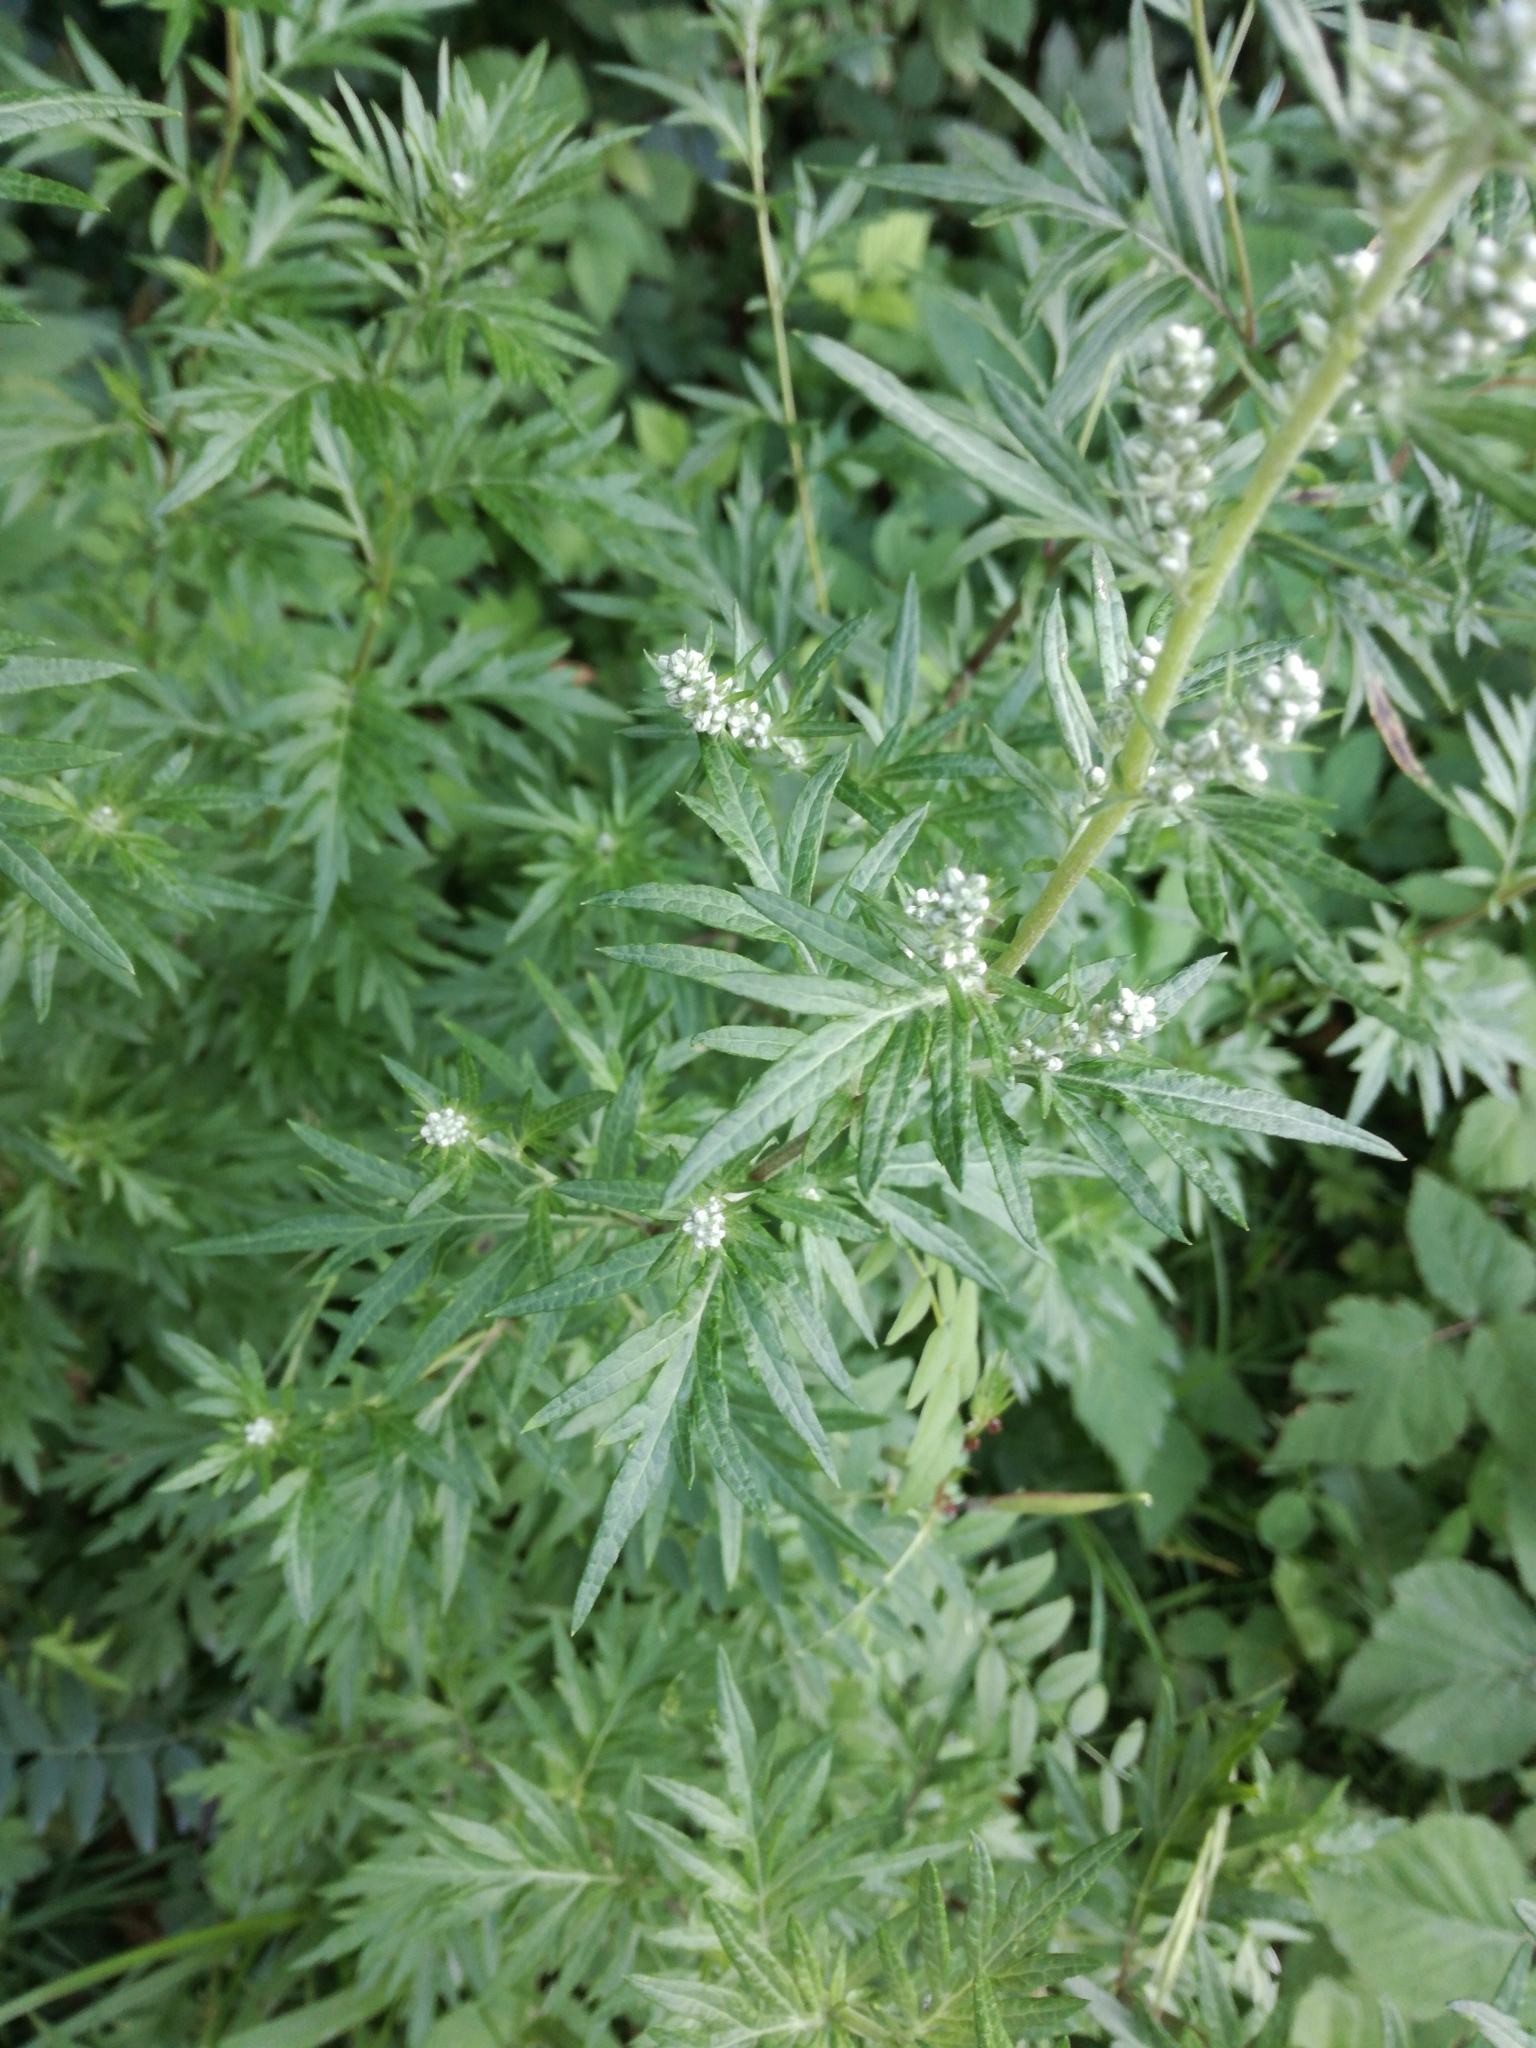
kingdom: Plantae
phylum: Tracheophyta
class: Magnoliopsida
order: Asterales
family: Asteraceae
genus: Artemisia
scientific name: Artemisia vulgaris
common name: Mugwort
